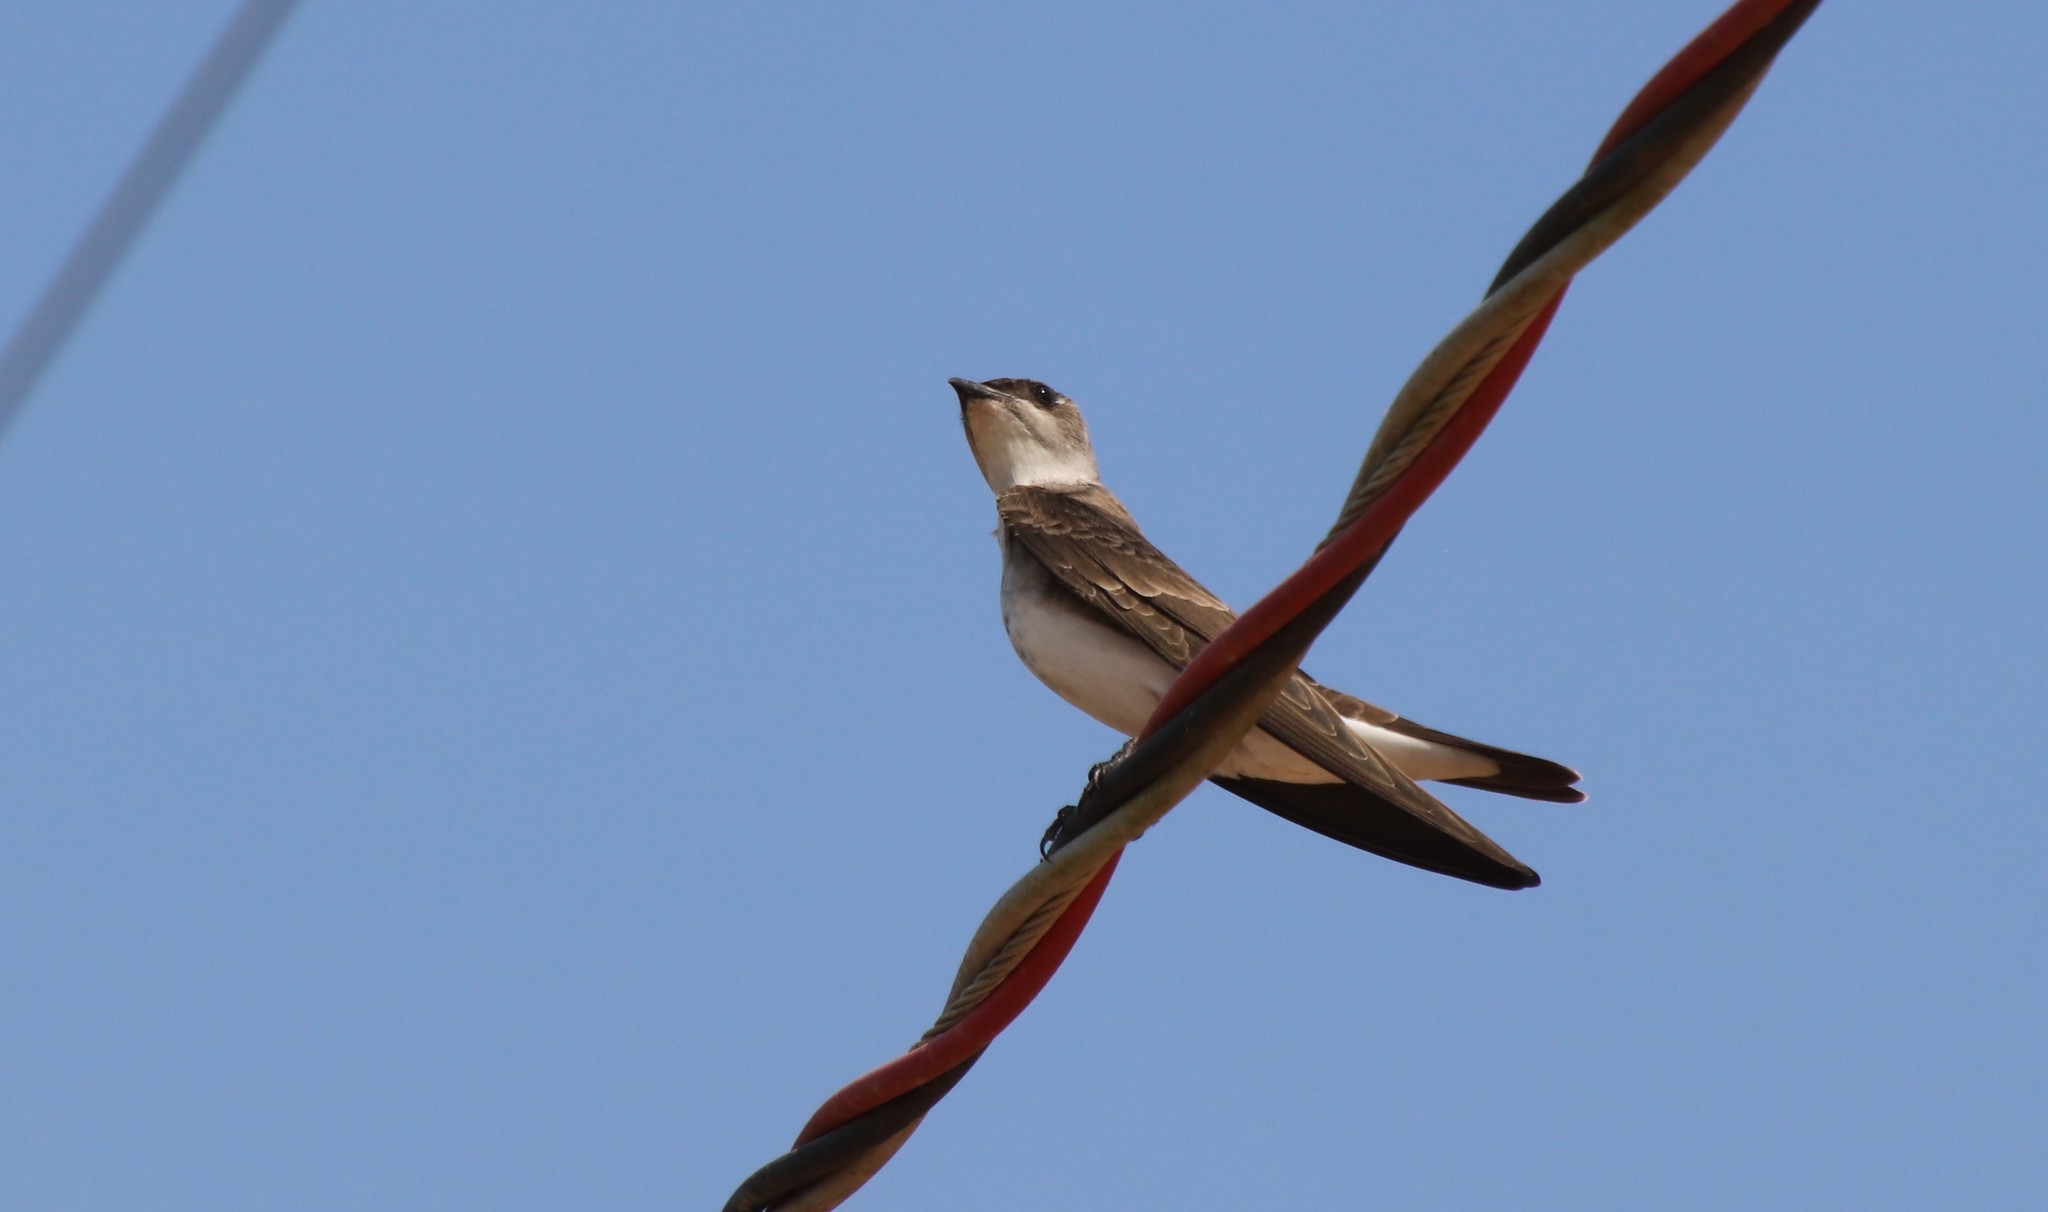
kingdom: Animalia
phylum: Chordata
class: Aves
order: Passeriformes
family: Hirundinidae
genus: Progne
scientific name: Progne tapera
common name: Brown-chested martin
